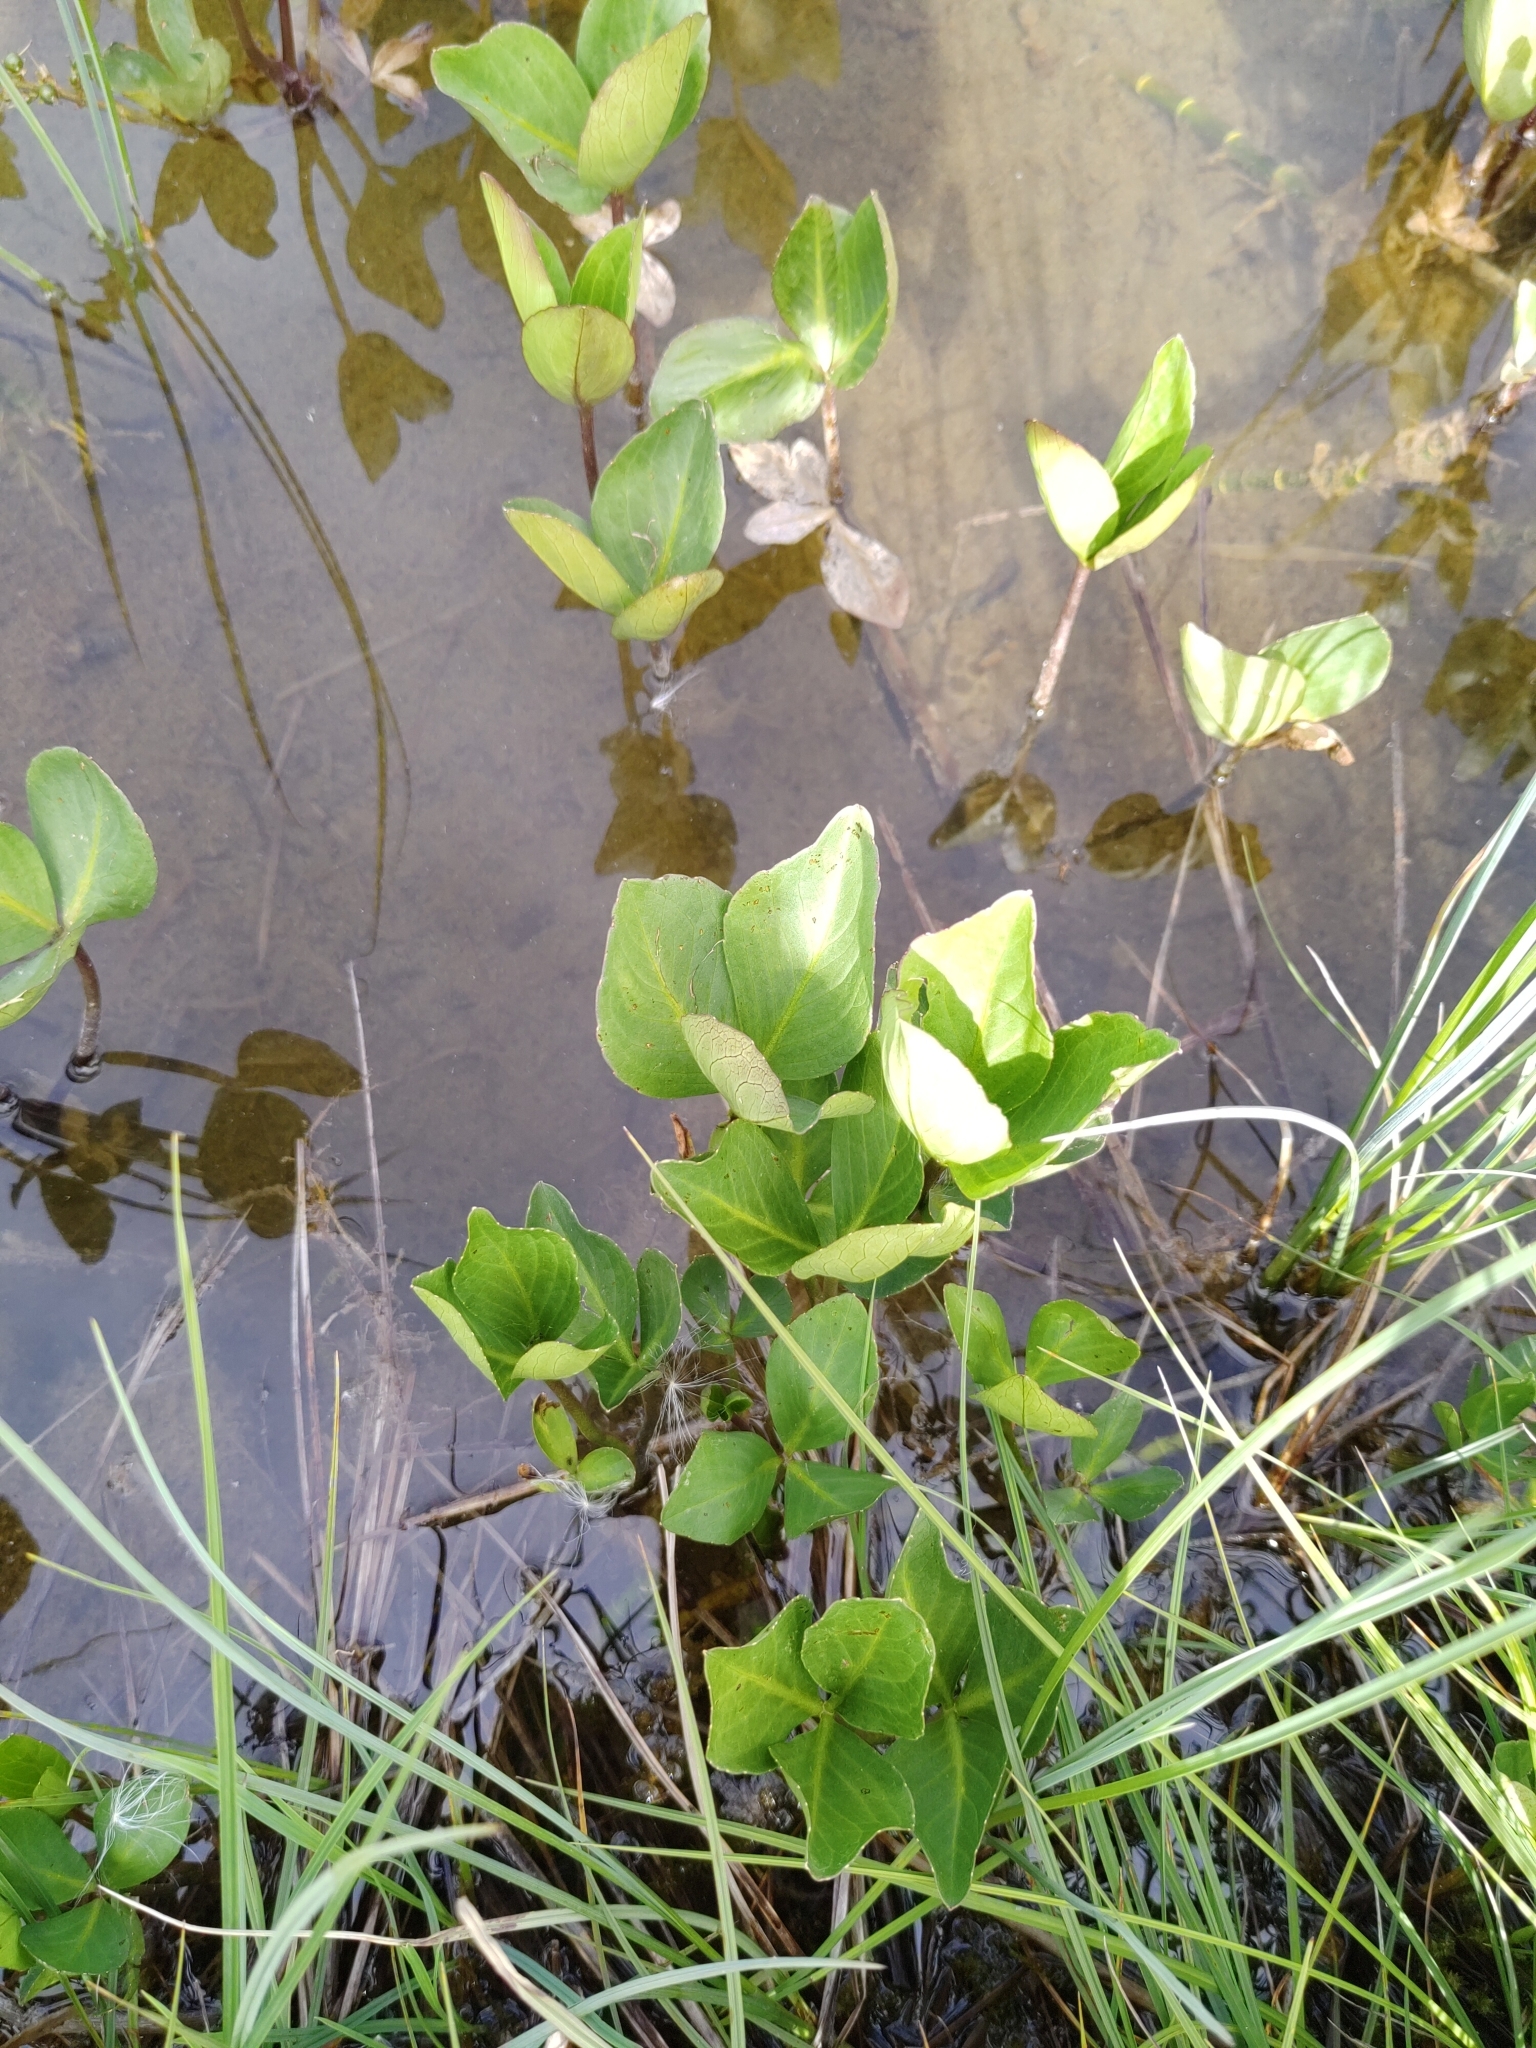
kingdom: Plantae
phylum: Tracheophyta
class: Magnoliopsida
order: Asterales
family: Menyanthaceae
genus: Menyanthes
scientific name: Menyanthes trifoliata
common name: Bogbean
